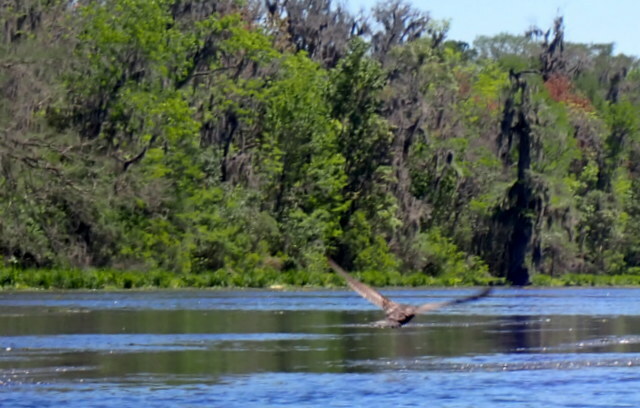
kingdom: Animalia
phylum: Chordata
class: Aves
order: Suliformes
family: Phalacrocoracidae
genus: Phalacrocorax
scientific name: Phalacrocorax auritus
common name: Double-crested cormorant
